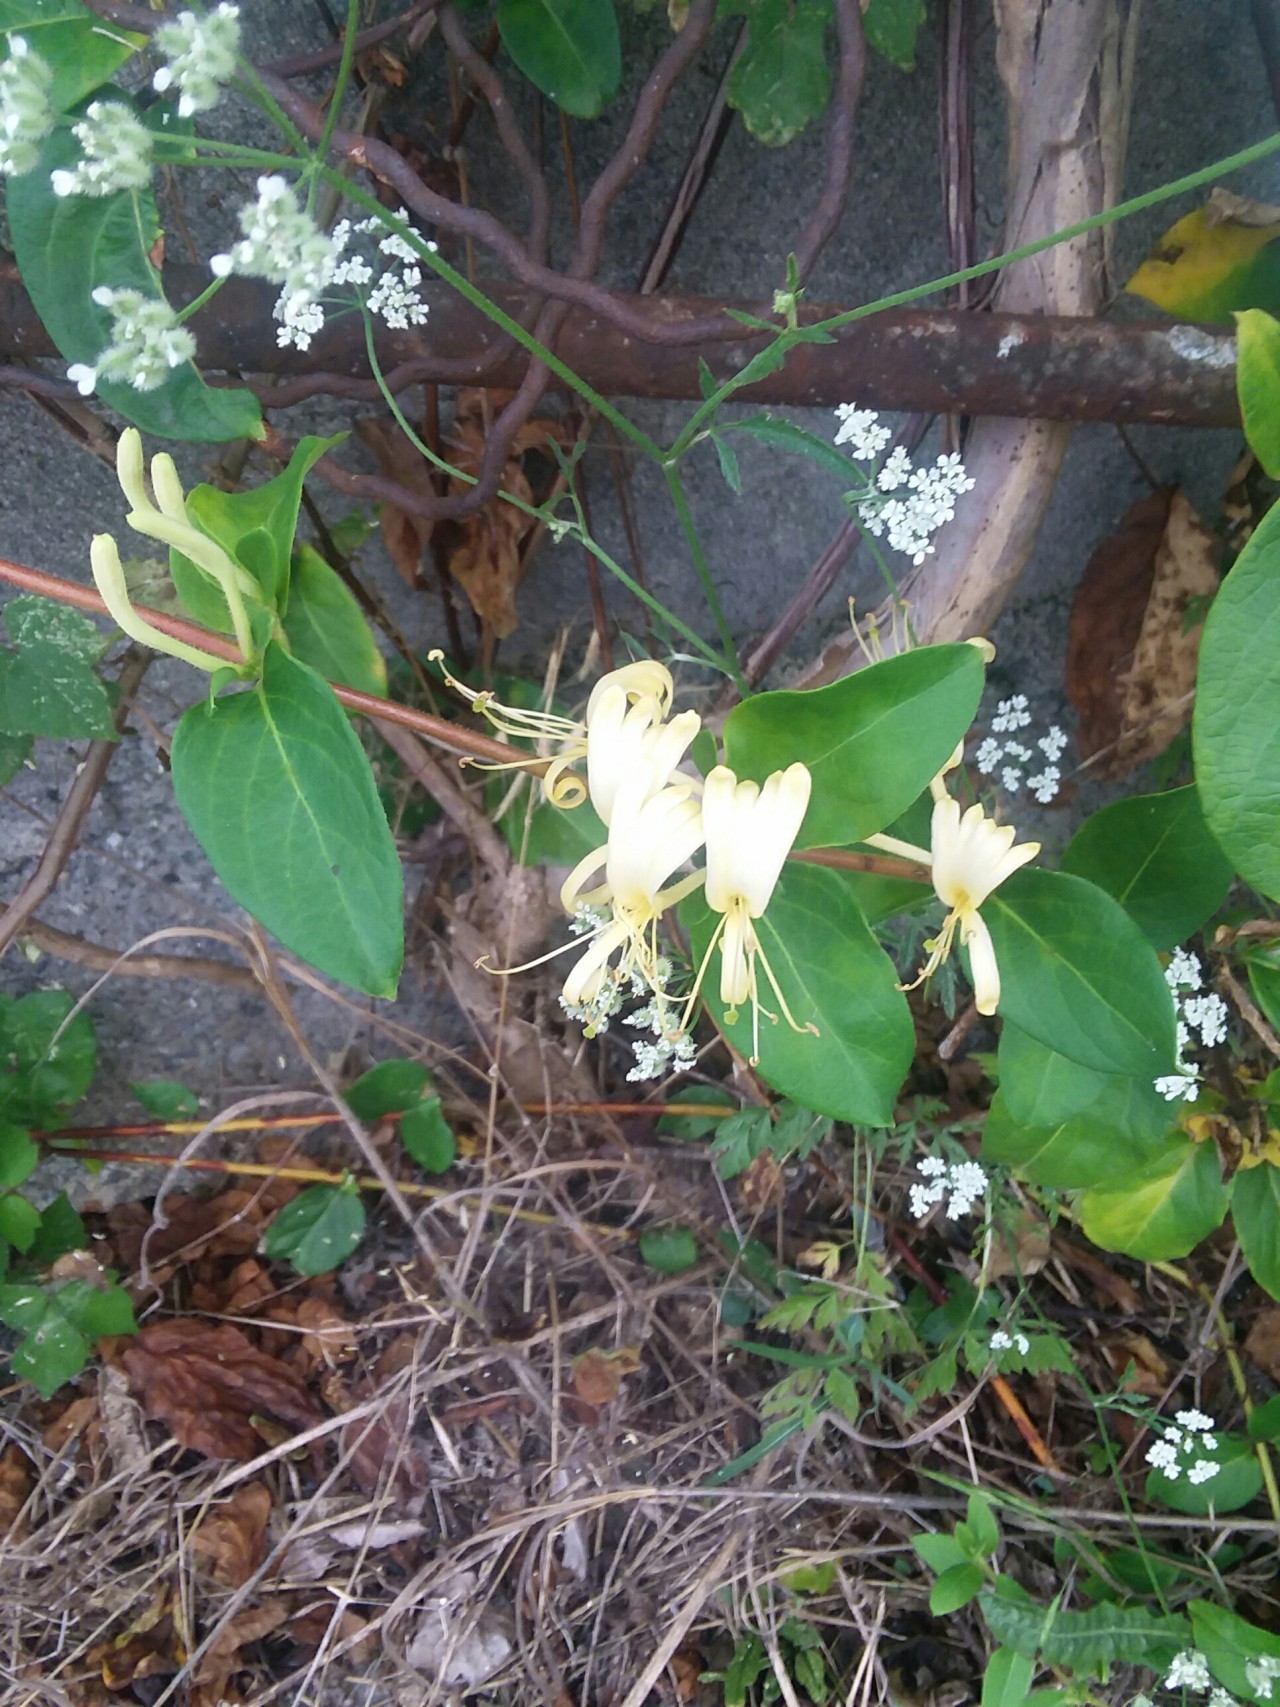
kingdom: Plantae
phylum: Tracheophyta
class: Magnoliopsida
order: Dipsacales
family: Caprifoliaceae
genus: Lonicera
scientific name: Lonicera japonica
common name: Japanese honeysuckle
